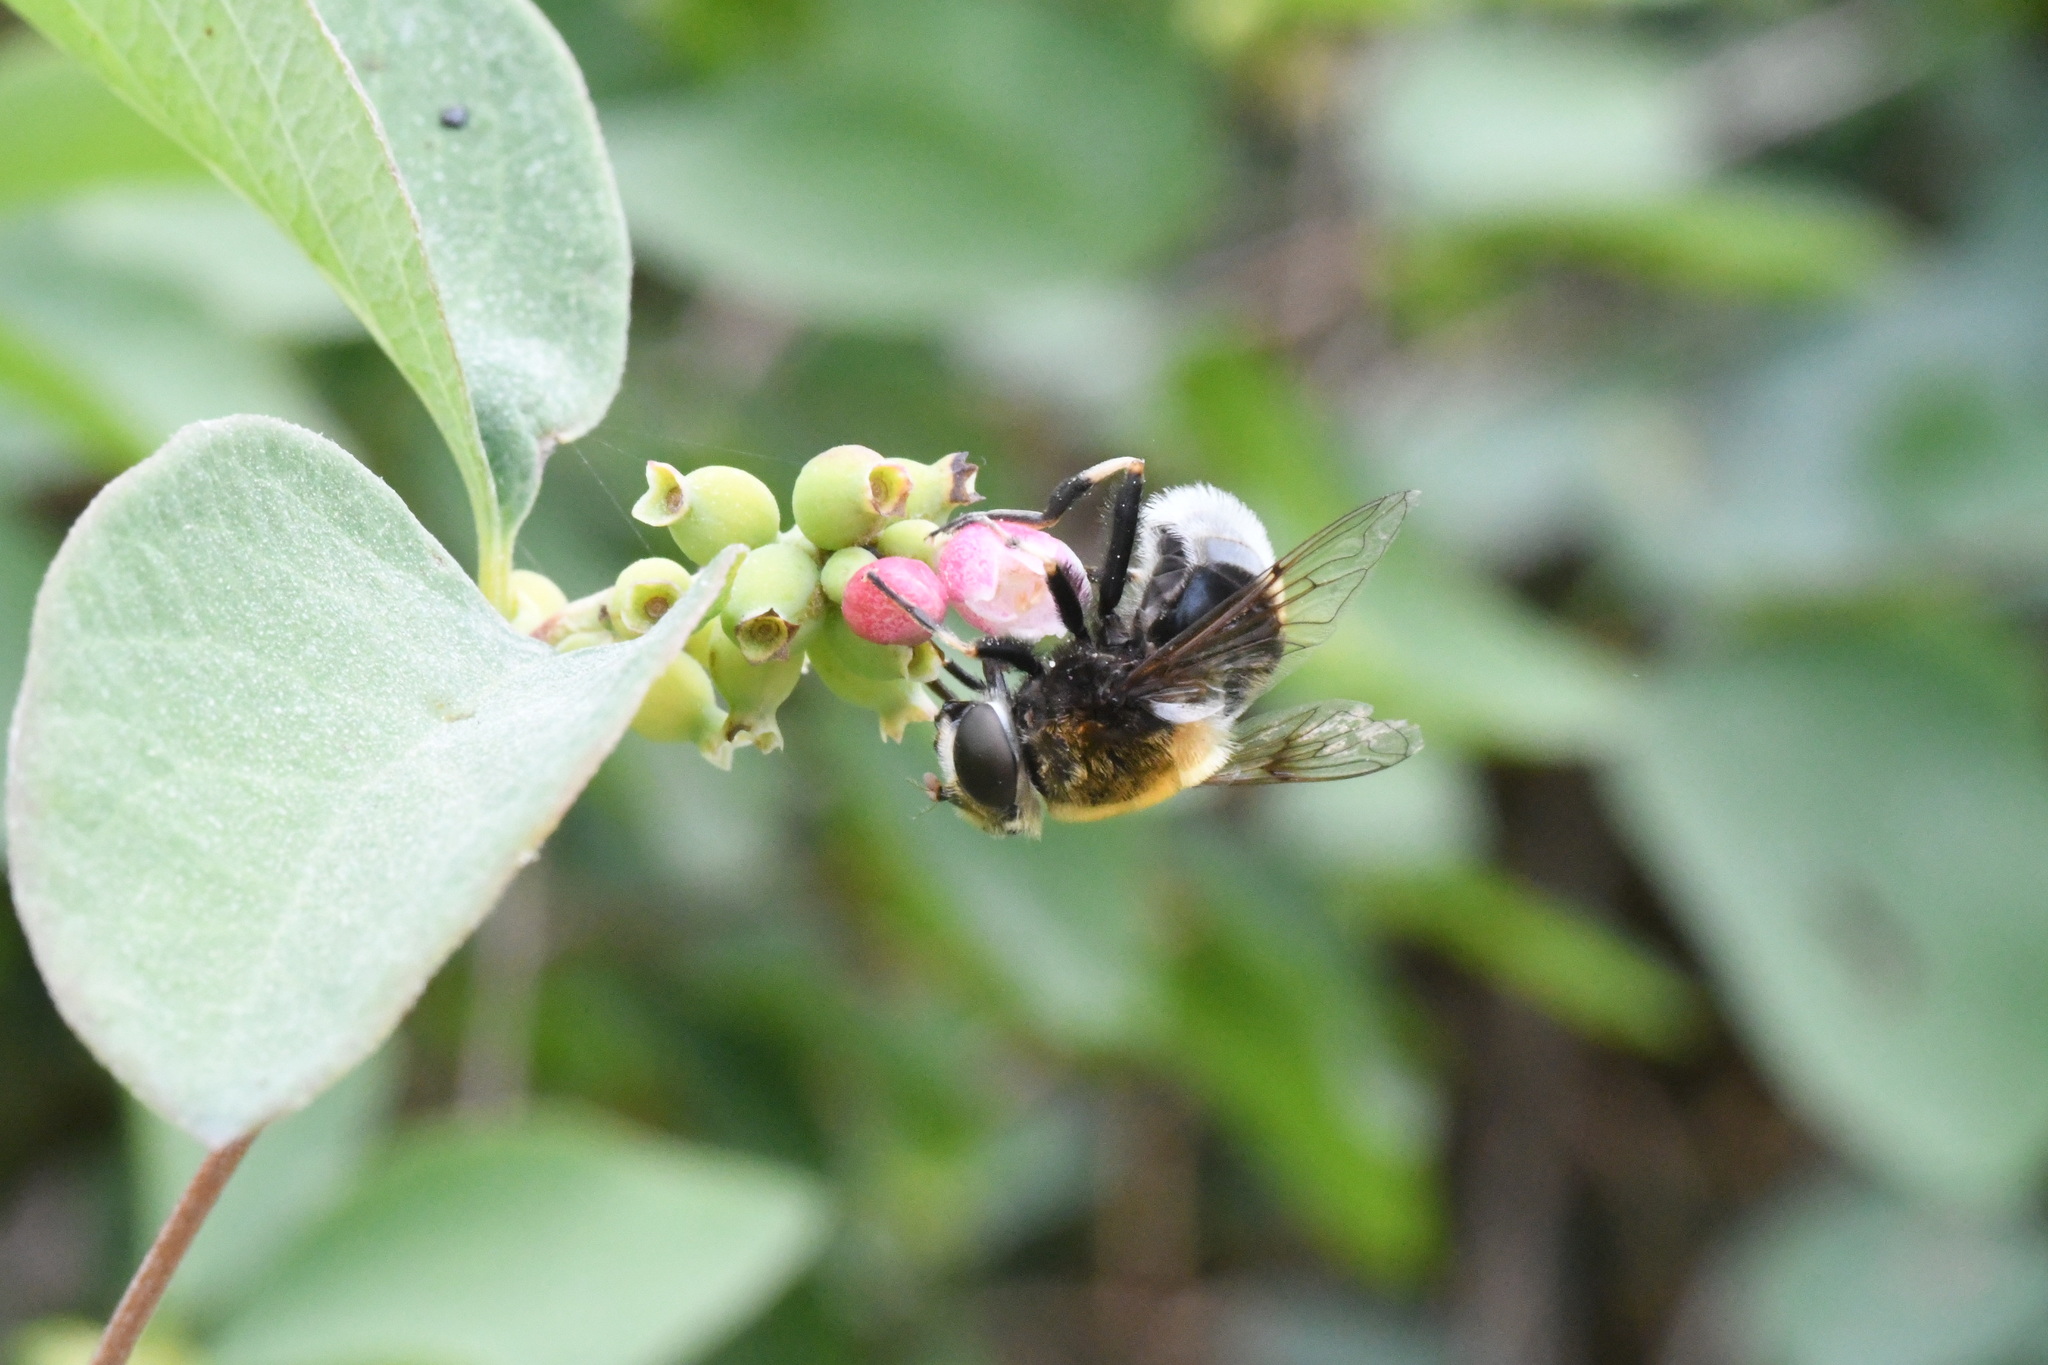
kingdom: Animalia
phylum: Arthropoda
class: Insecta
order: Diptera
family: Syrphidae
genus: Eristalis
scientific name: Eristalis intricaria
